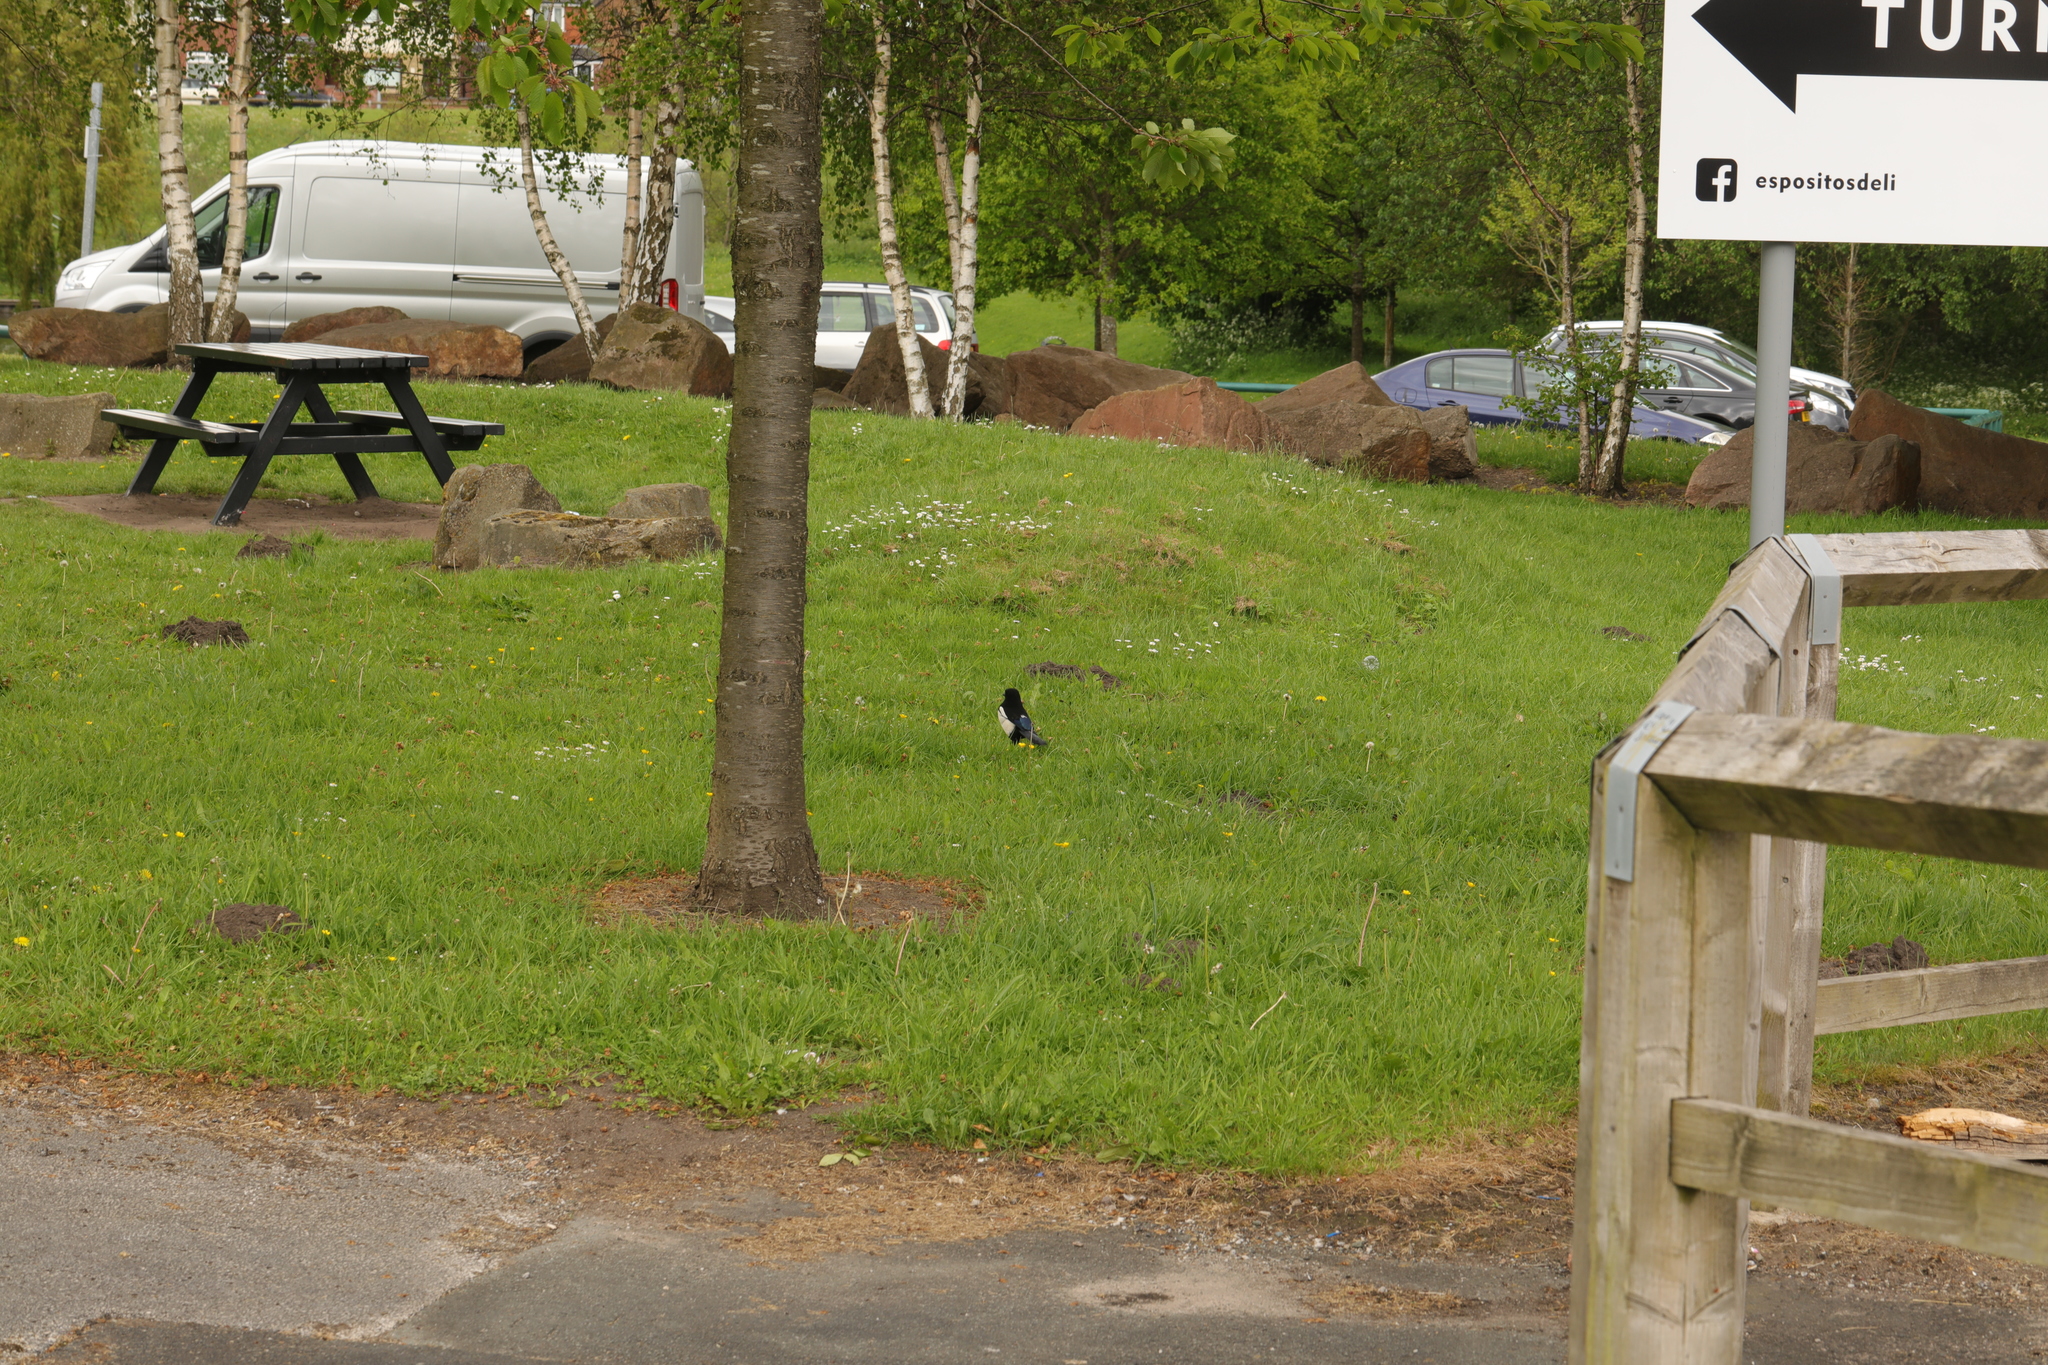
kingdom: Animalia
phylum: Chordata
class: Aves
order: Passeriformes
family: Corvidae
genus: Pica
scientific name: Pica pica
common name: Eurasian magpie
